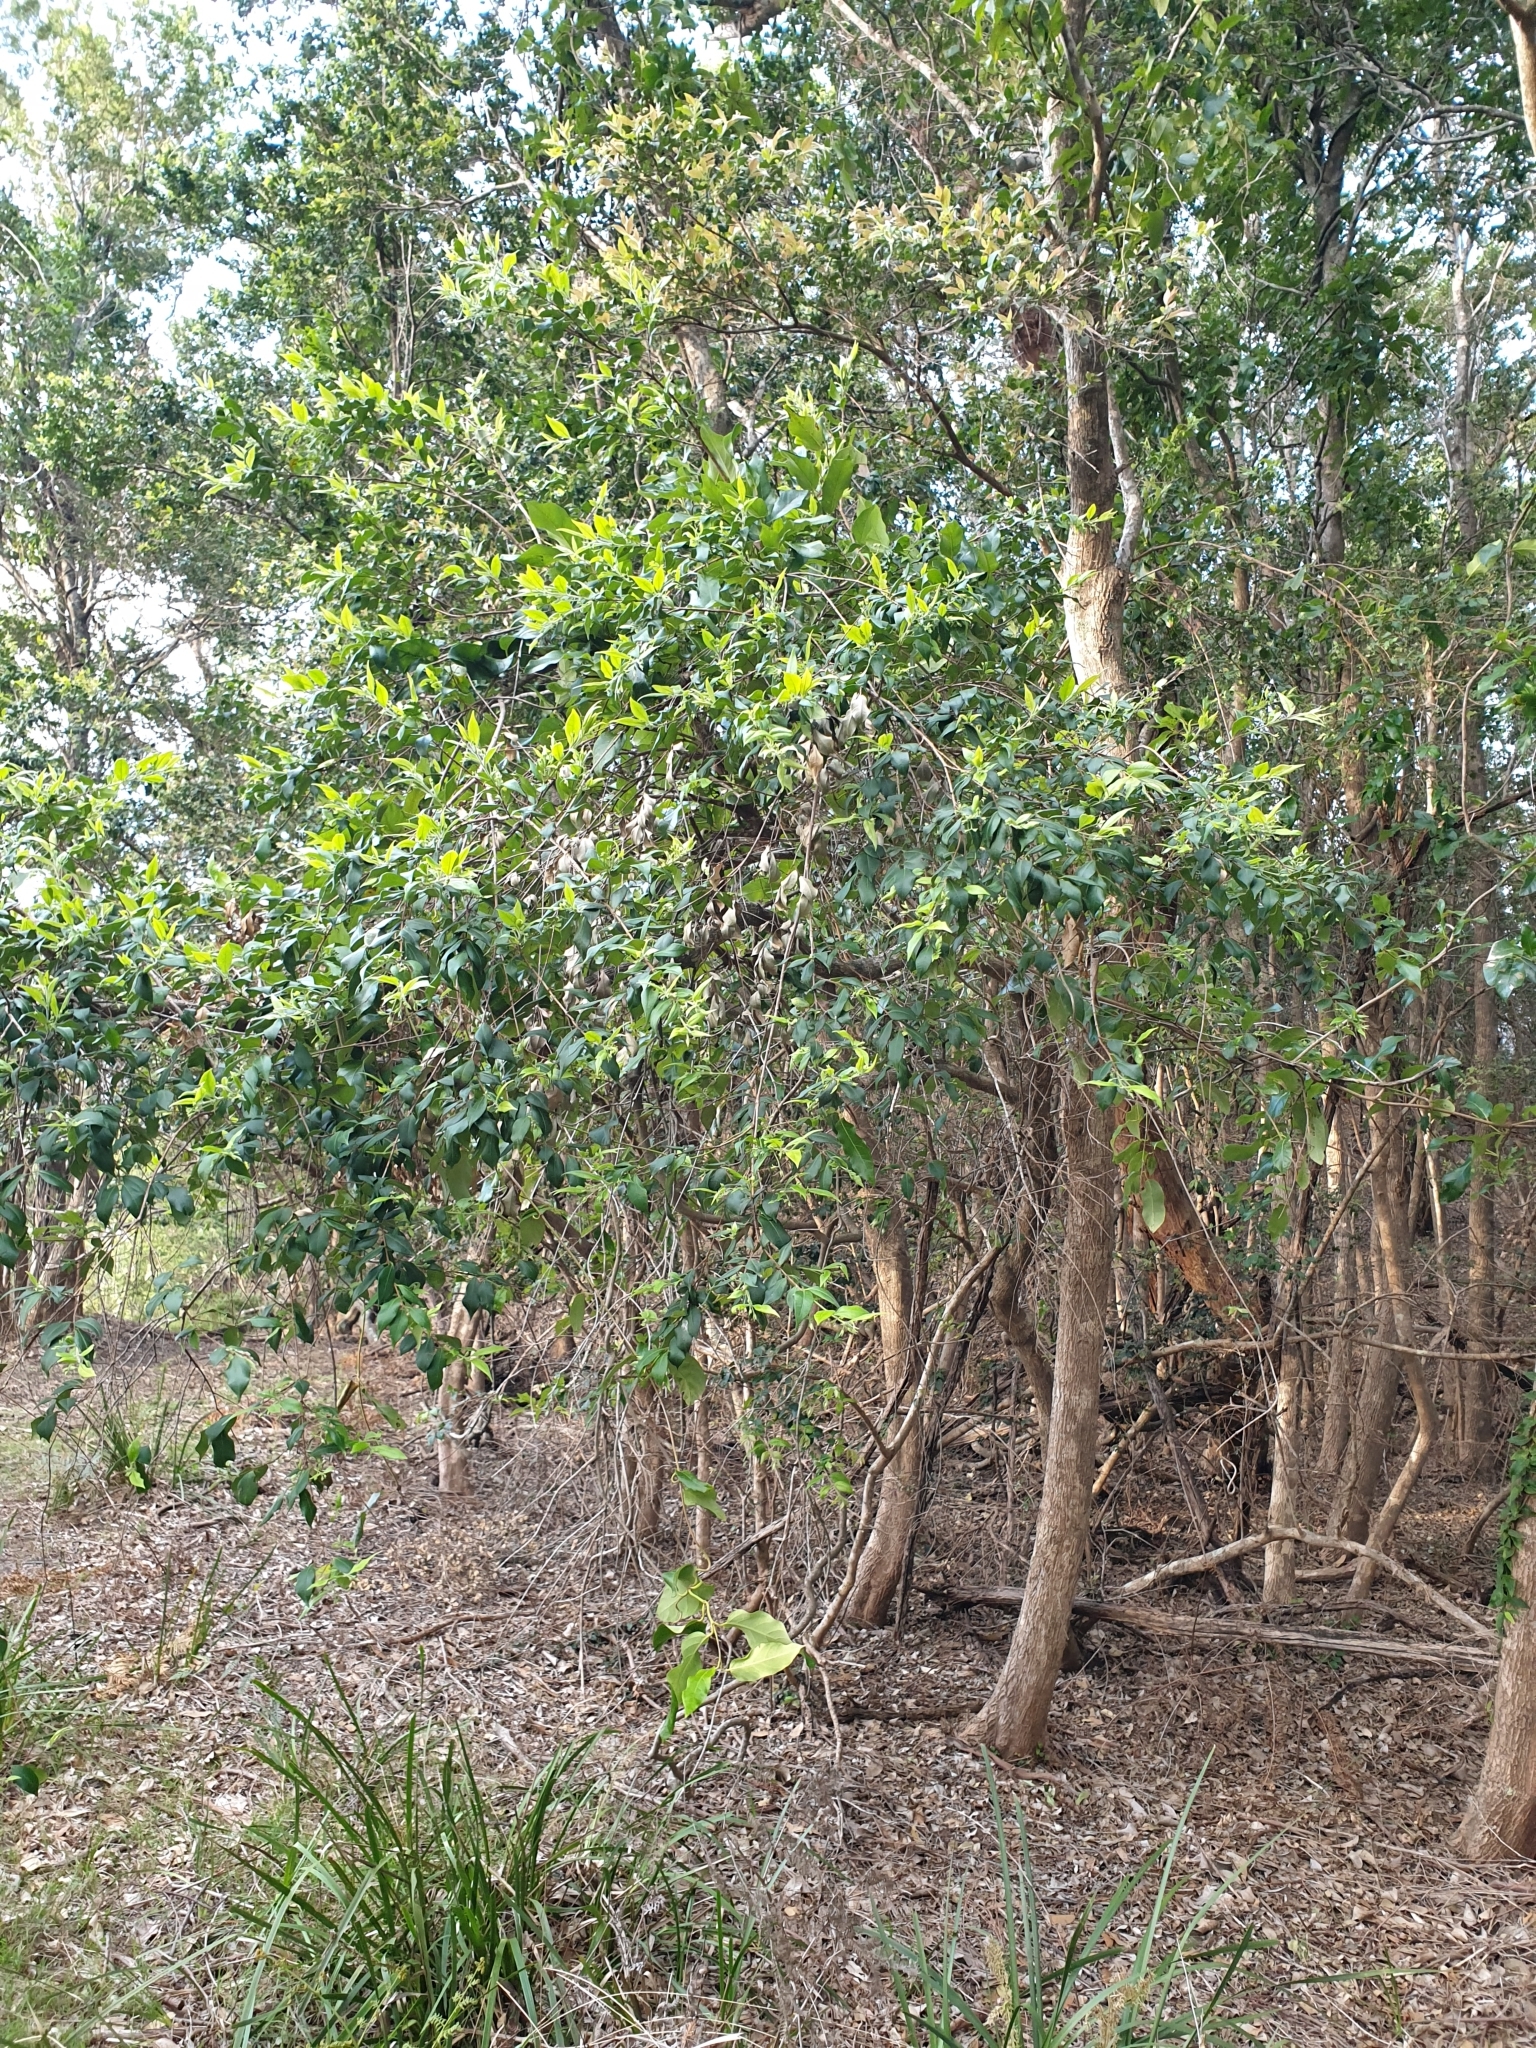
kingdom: Plantae
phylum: Tracheophyta
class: Magnoliopsida
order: Myrtales
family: Myrtaceae
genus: Backhousia
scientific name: Backhousia myrtifolia
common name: Carrol
